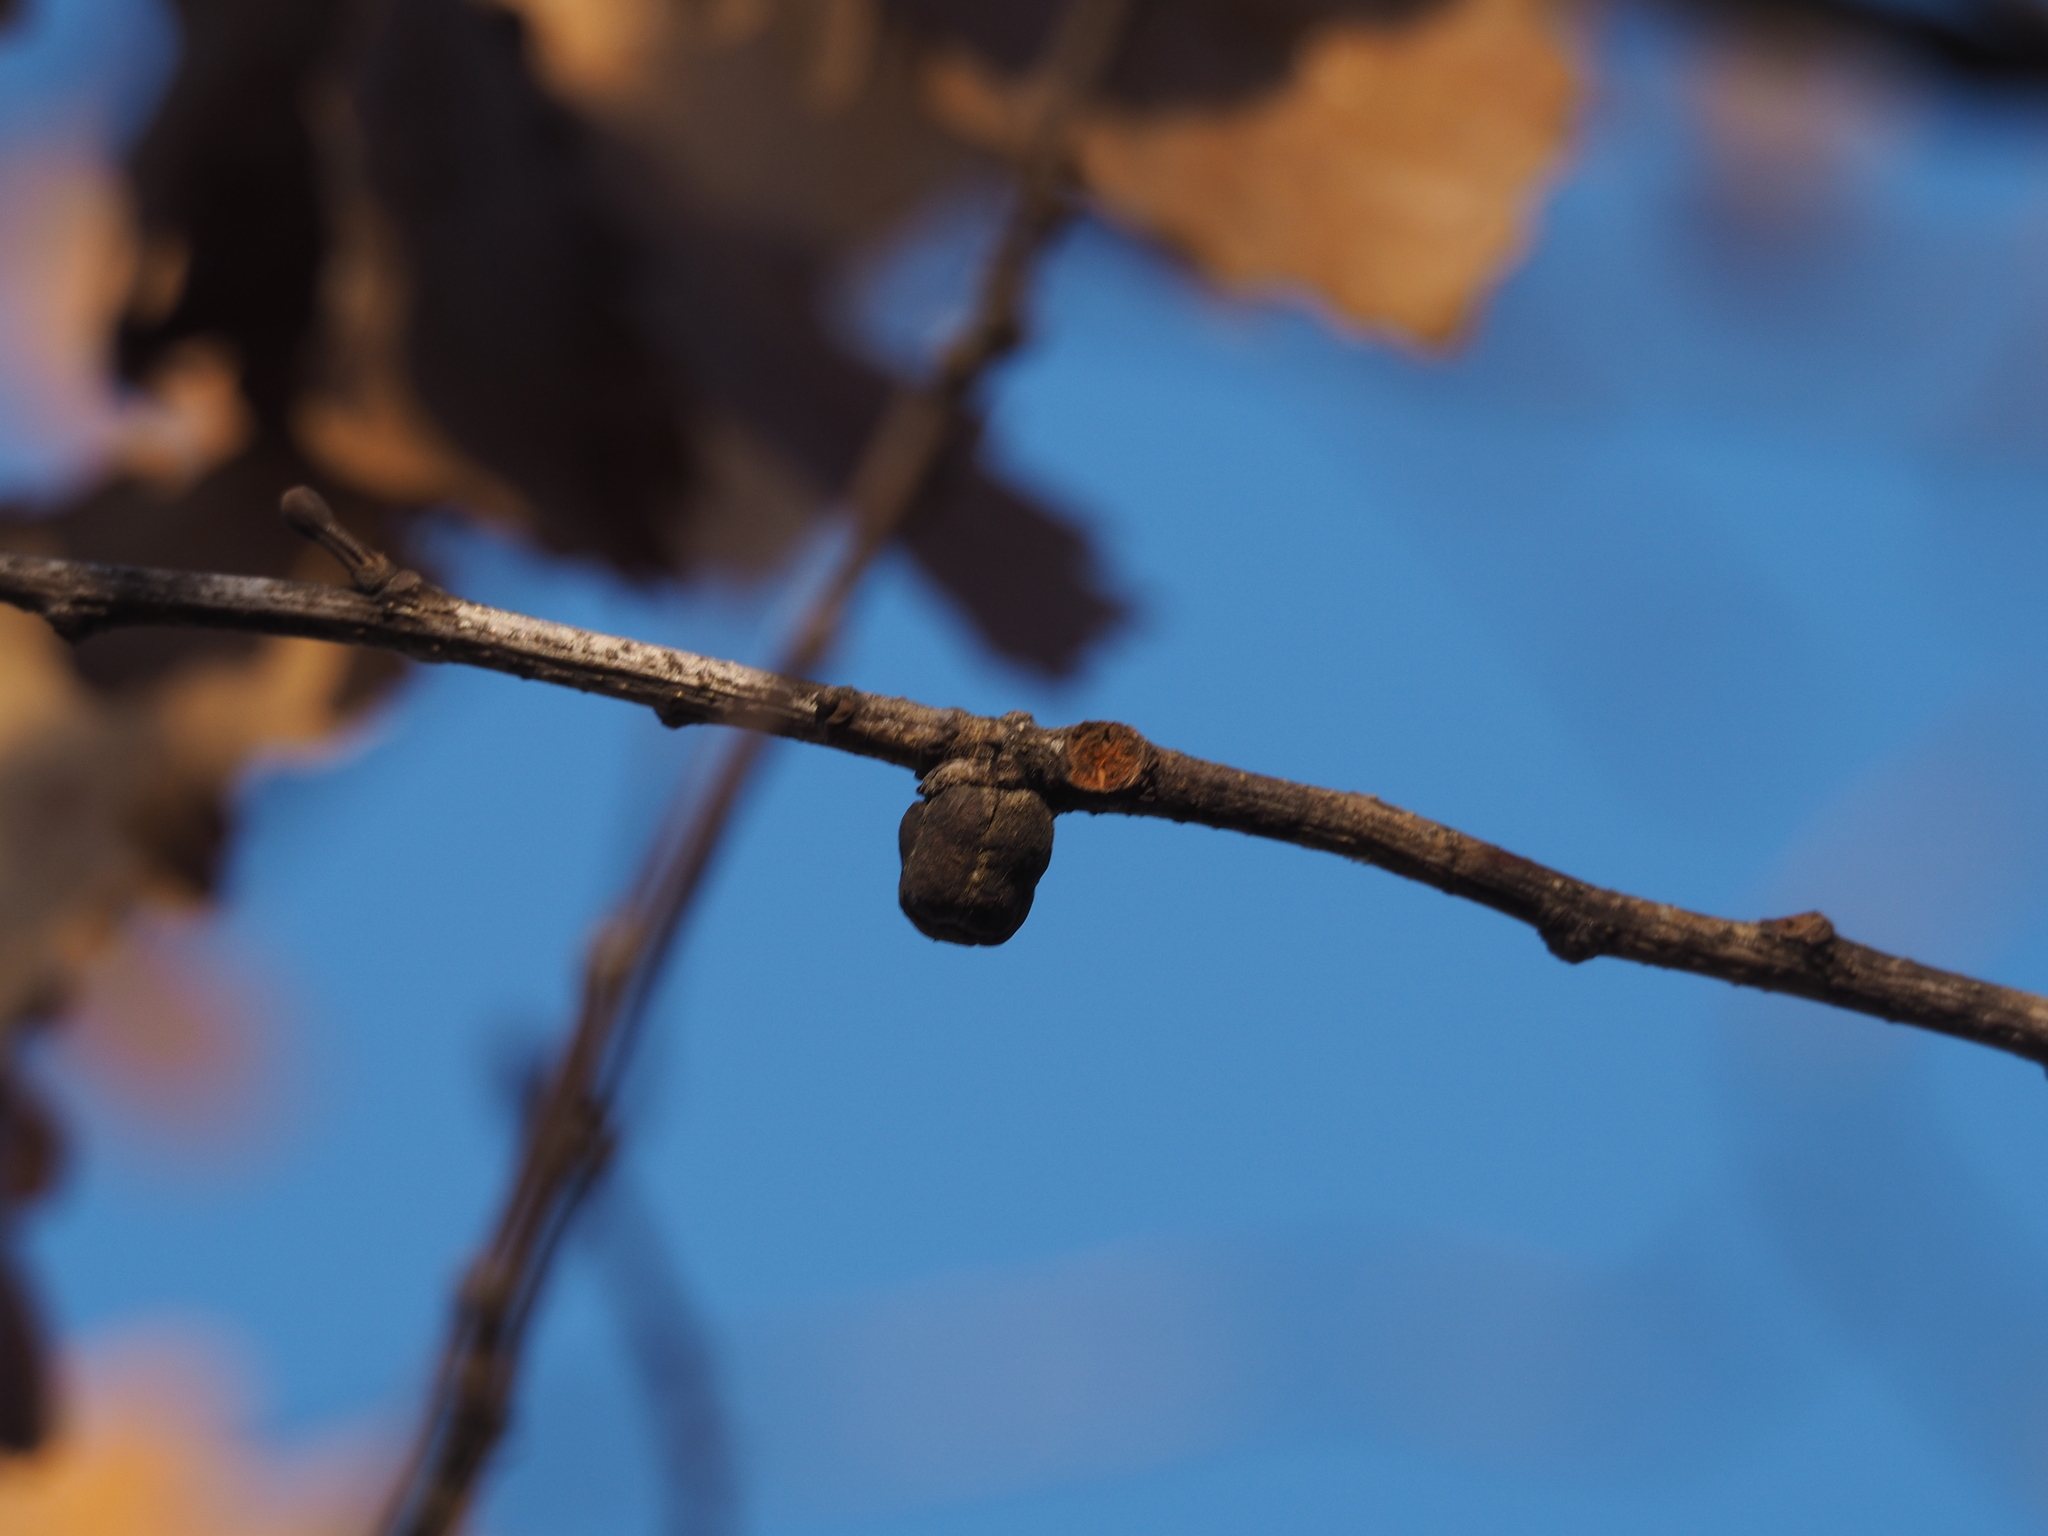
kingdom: Animalia
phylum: Arthropoda
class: Insecta
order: Hymenoptera
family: Cynipidae
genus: Andricus
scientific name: Andricus glutinosus
